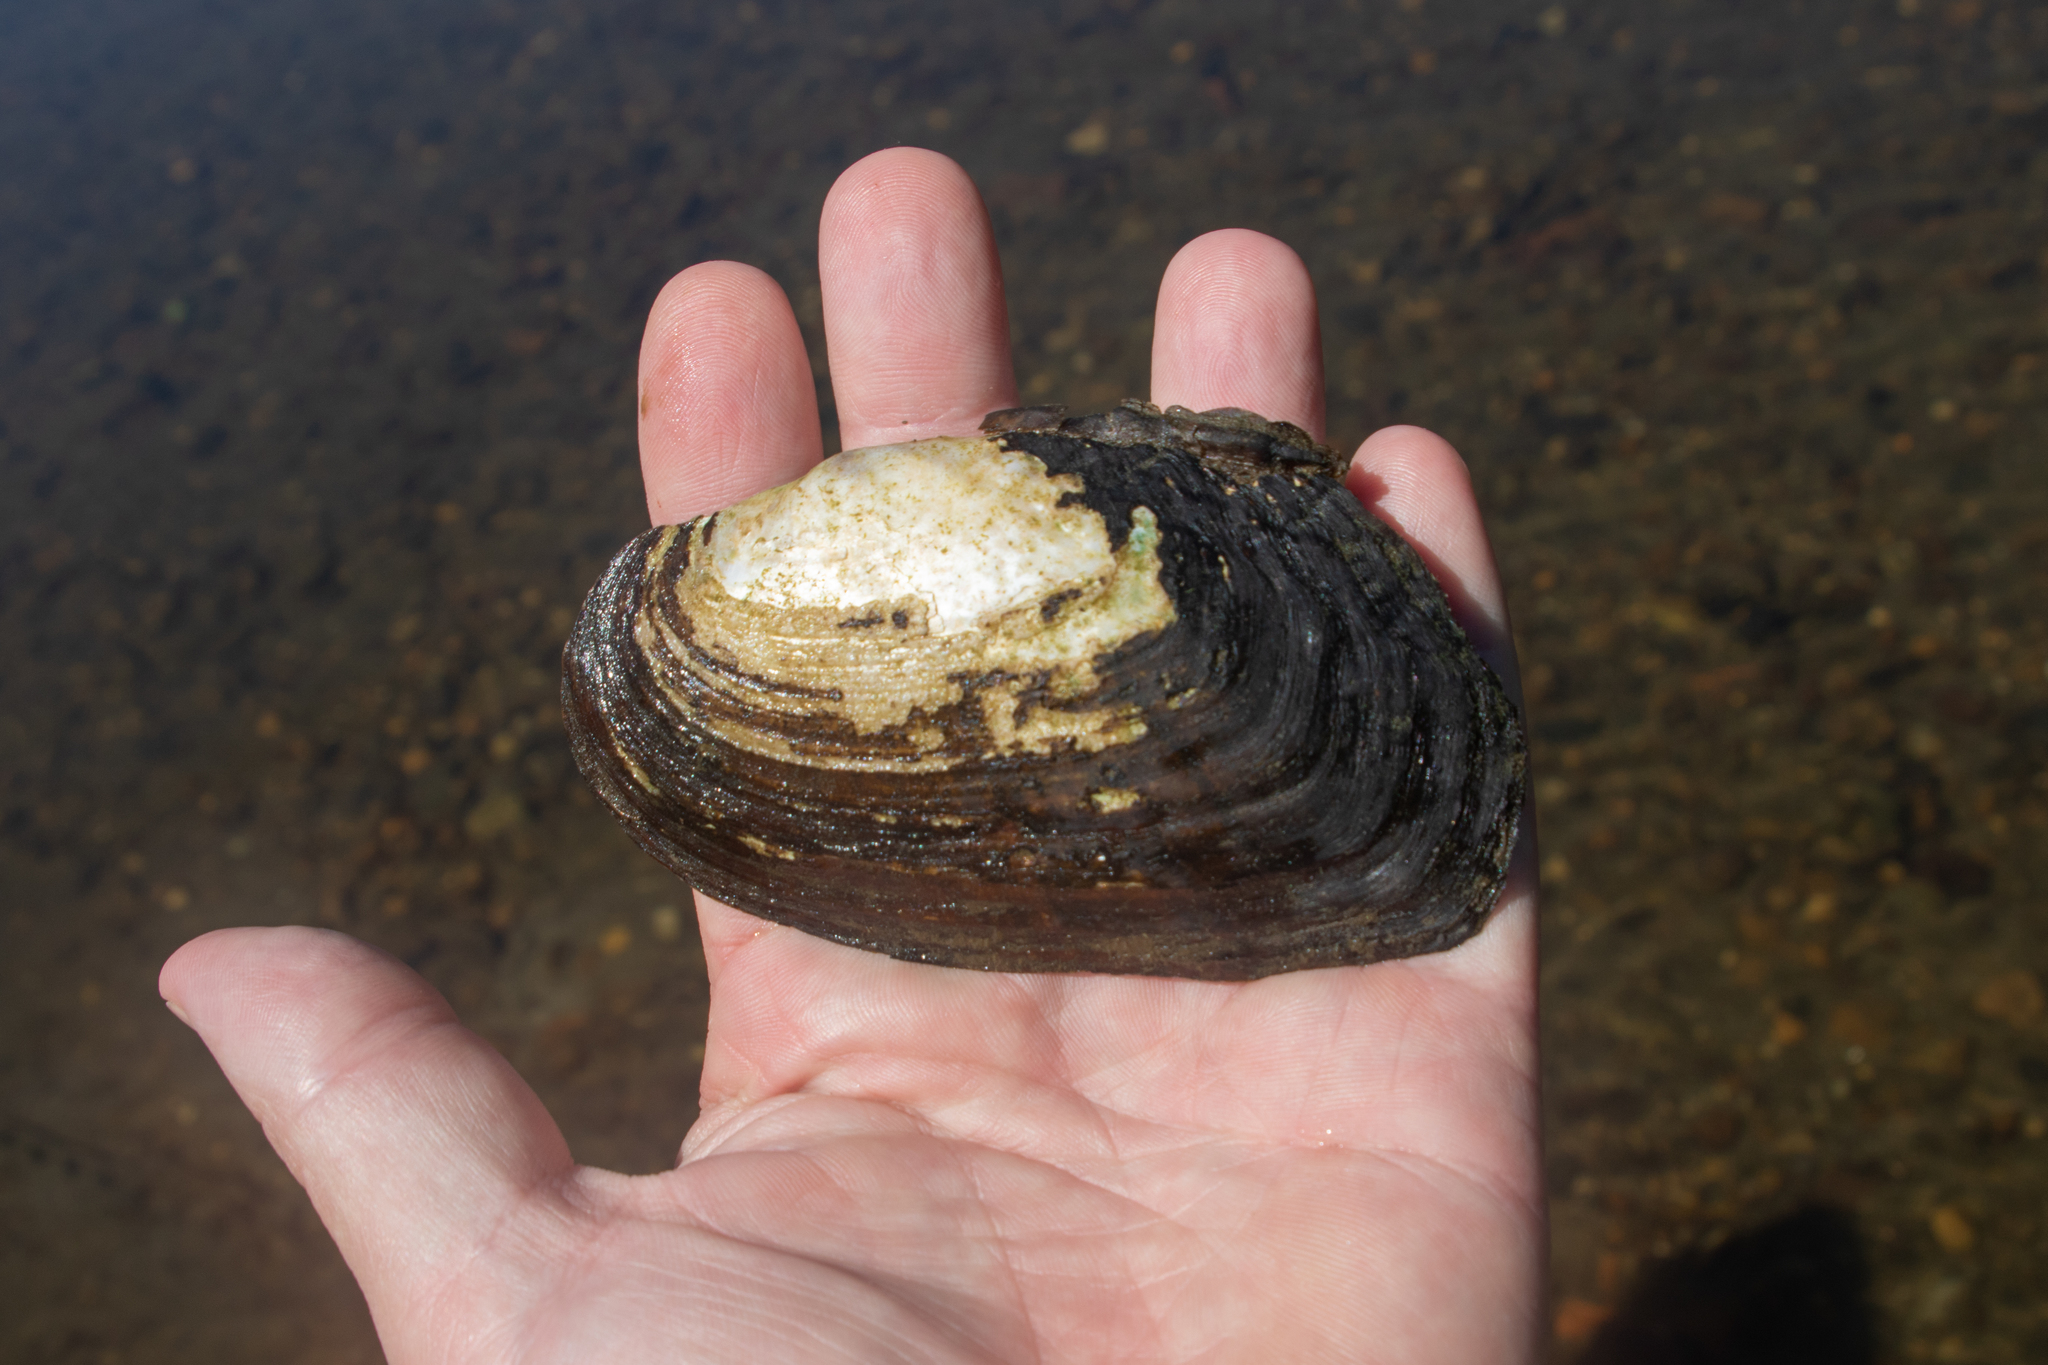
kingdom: Animalia
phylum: Mollusca
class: Bivalvia
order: Unionida
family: Unionidae
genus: Lasmigona
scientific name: Lasmigona costata
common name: Flutedshell
